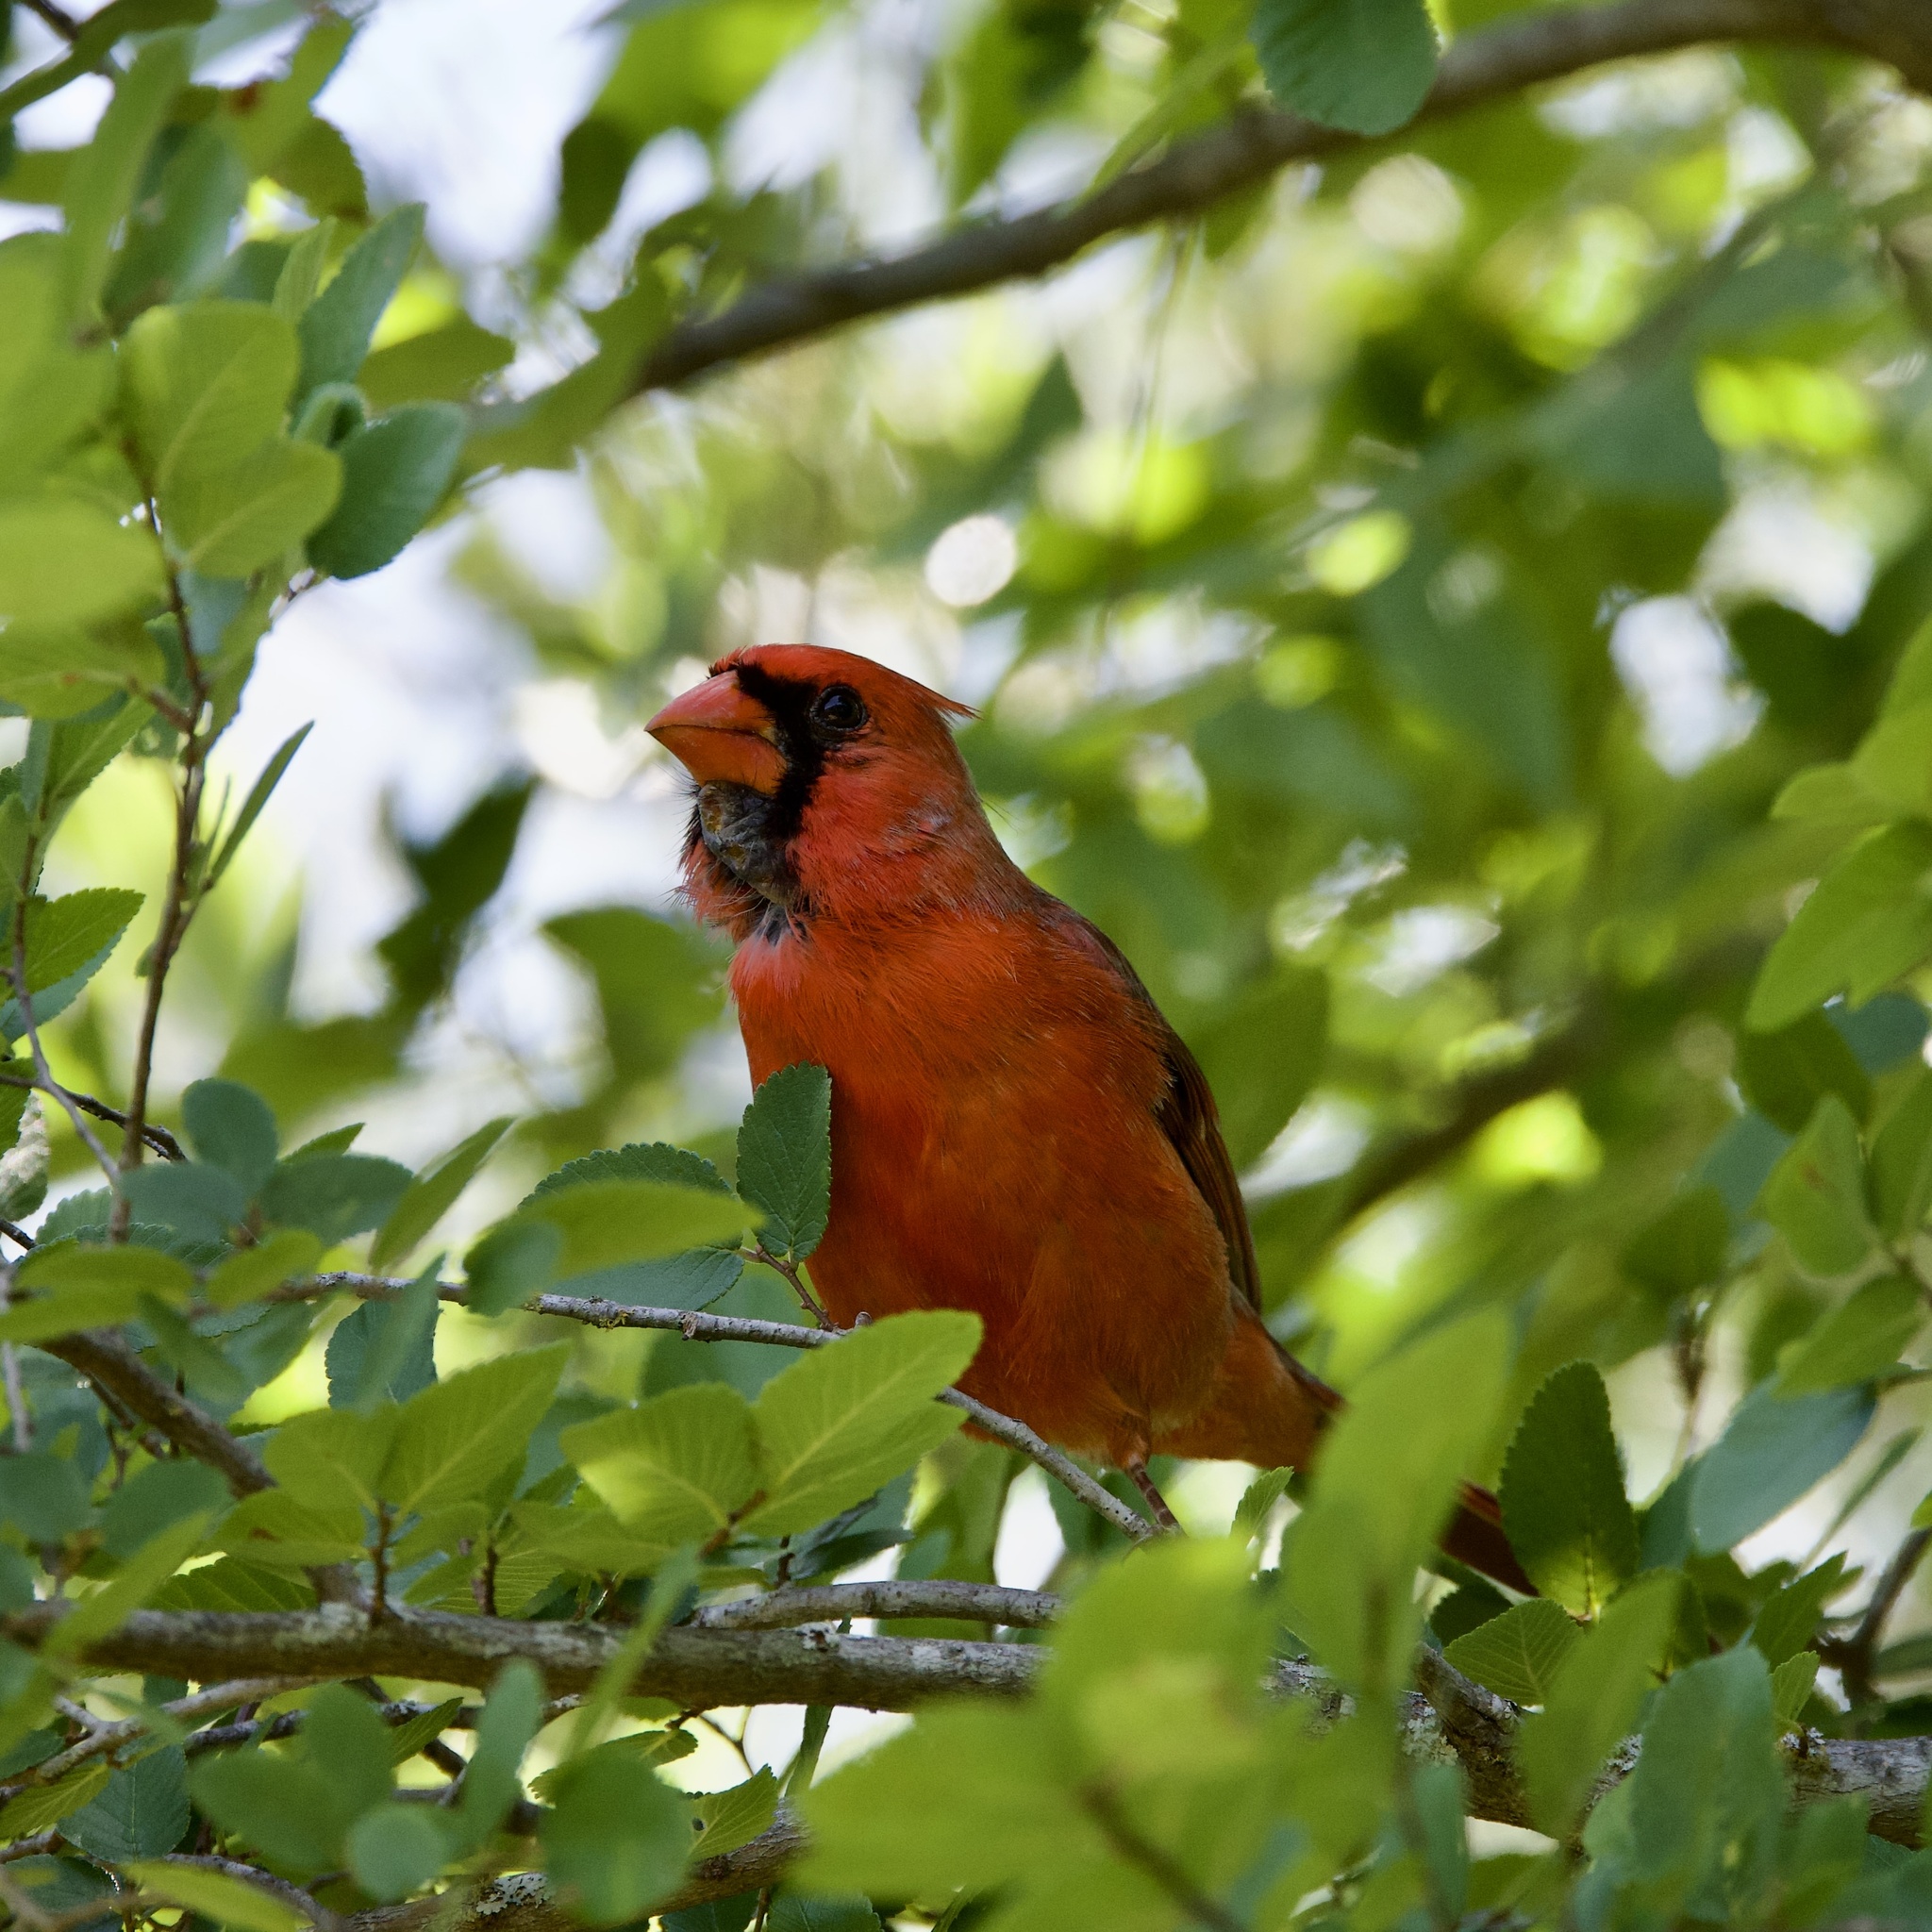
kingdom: Animalia
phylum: Chordata
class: Aves
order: Passeriformes
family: Cardinalidae
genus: Cardinalis
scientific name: Cardinalis cardinalis
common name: Northern cardinal
